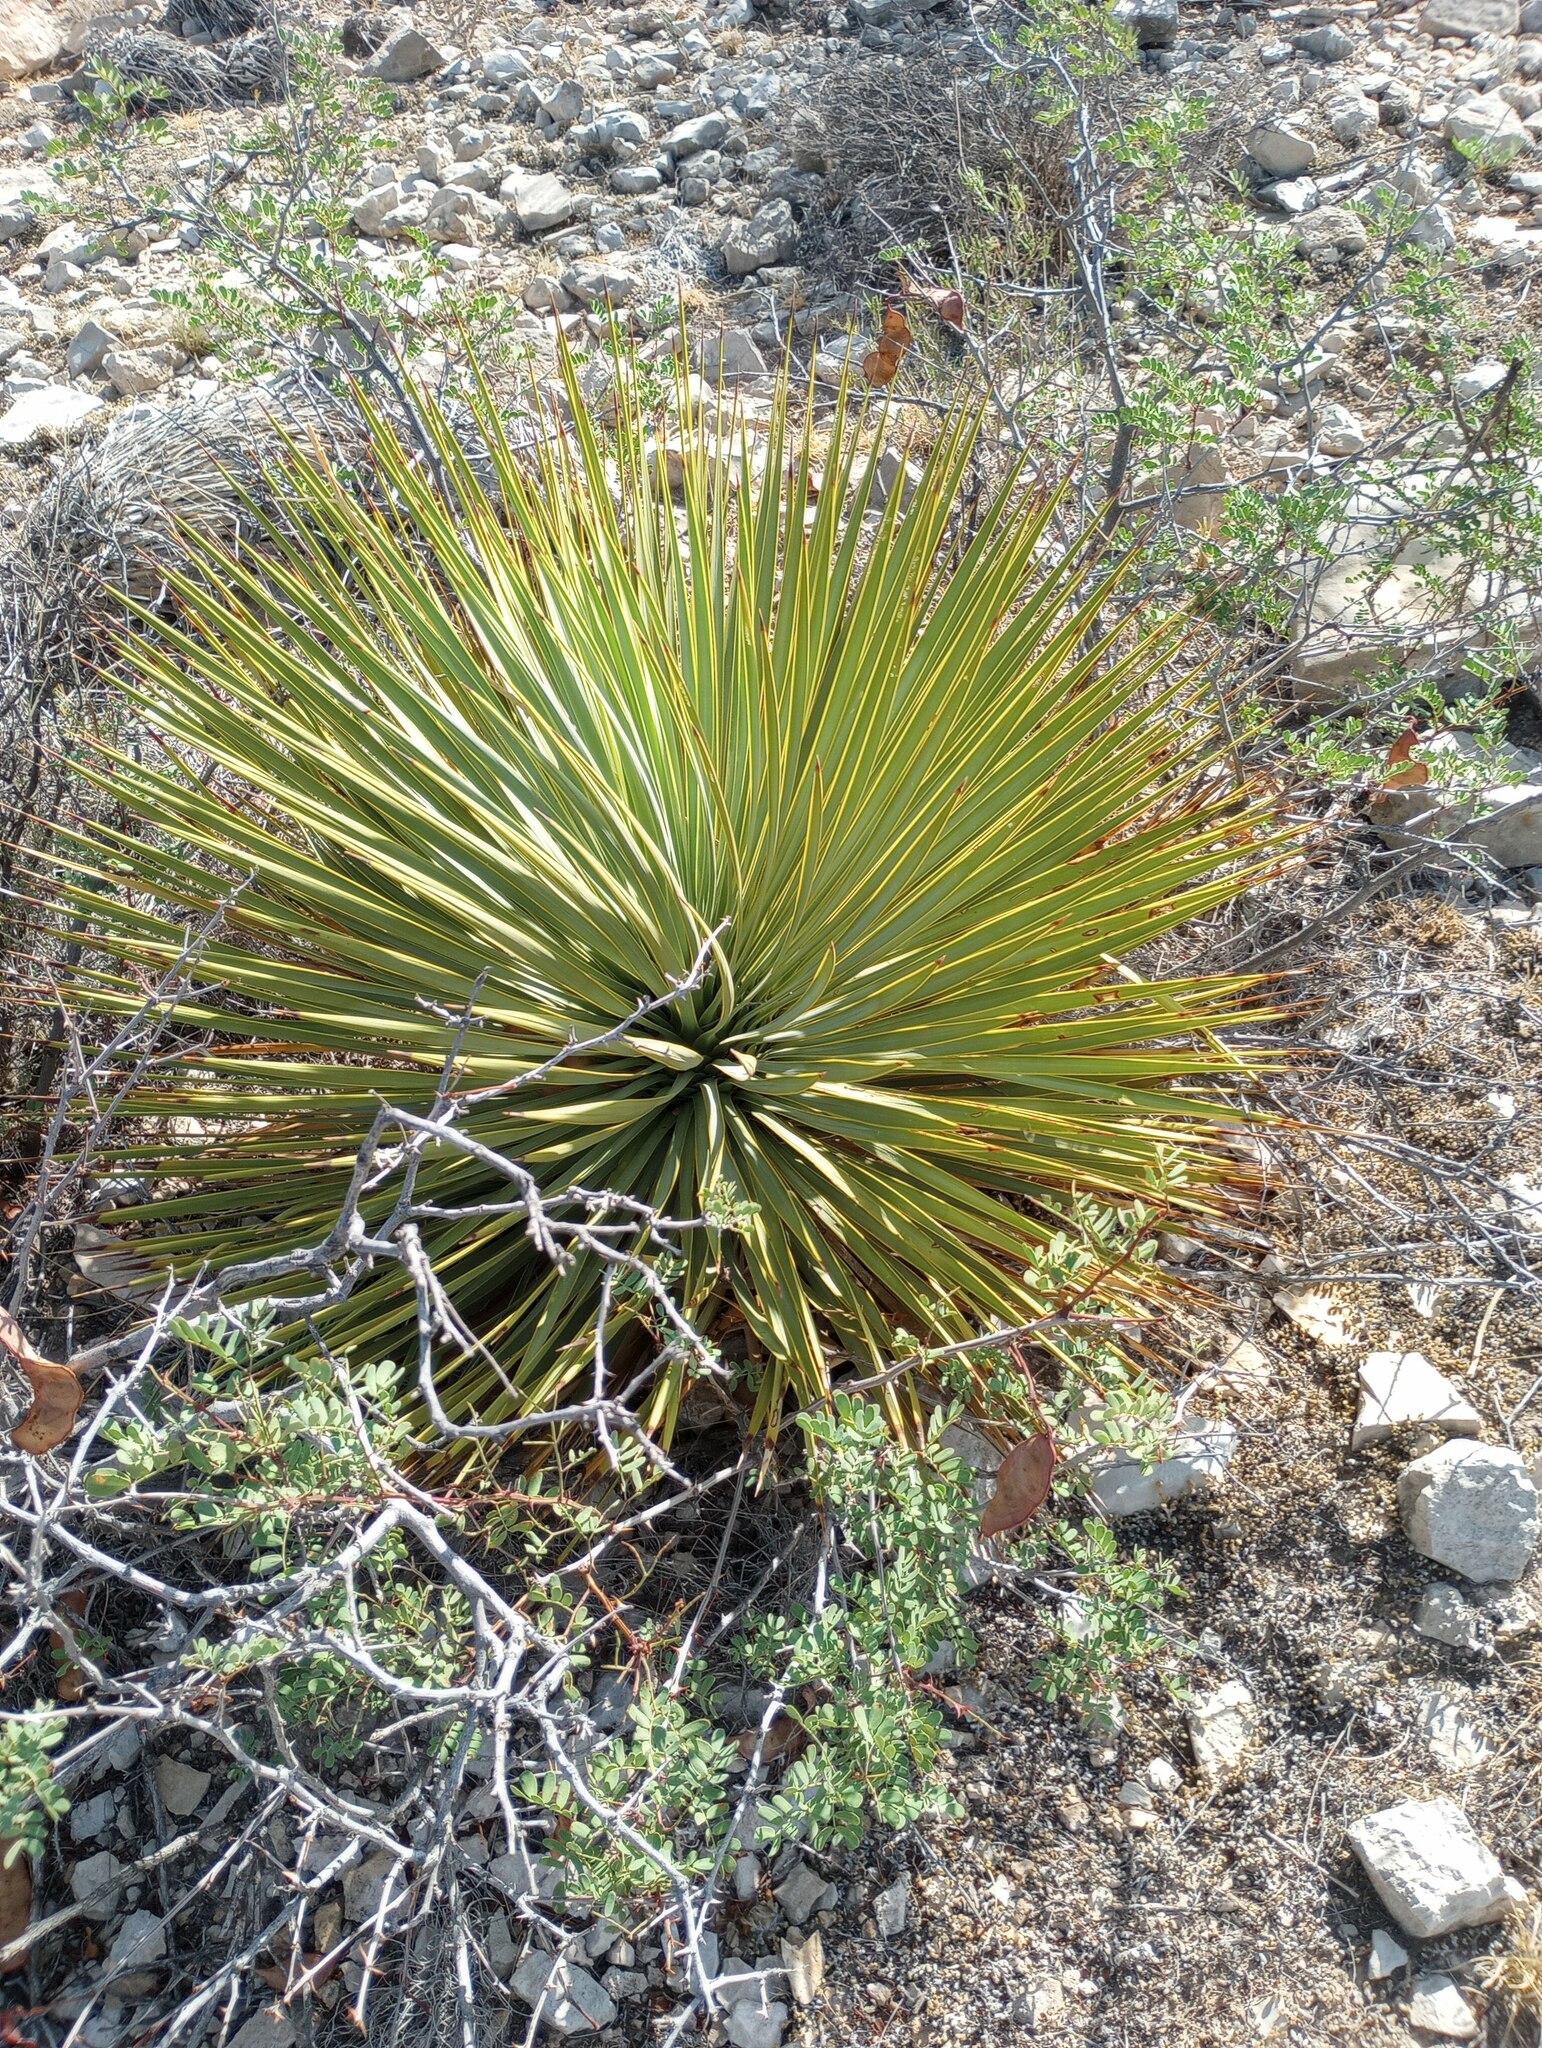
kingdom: Plantae
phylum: Tracheophyta
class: Liliopsida
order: Asparagales
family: Asparagaceae
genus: Yucca
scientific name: Yucca thompsoniana
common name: Trans-pecos yucca
